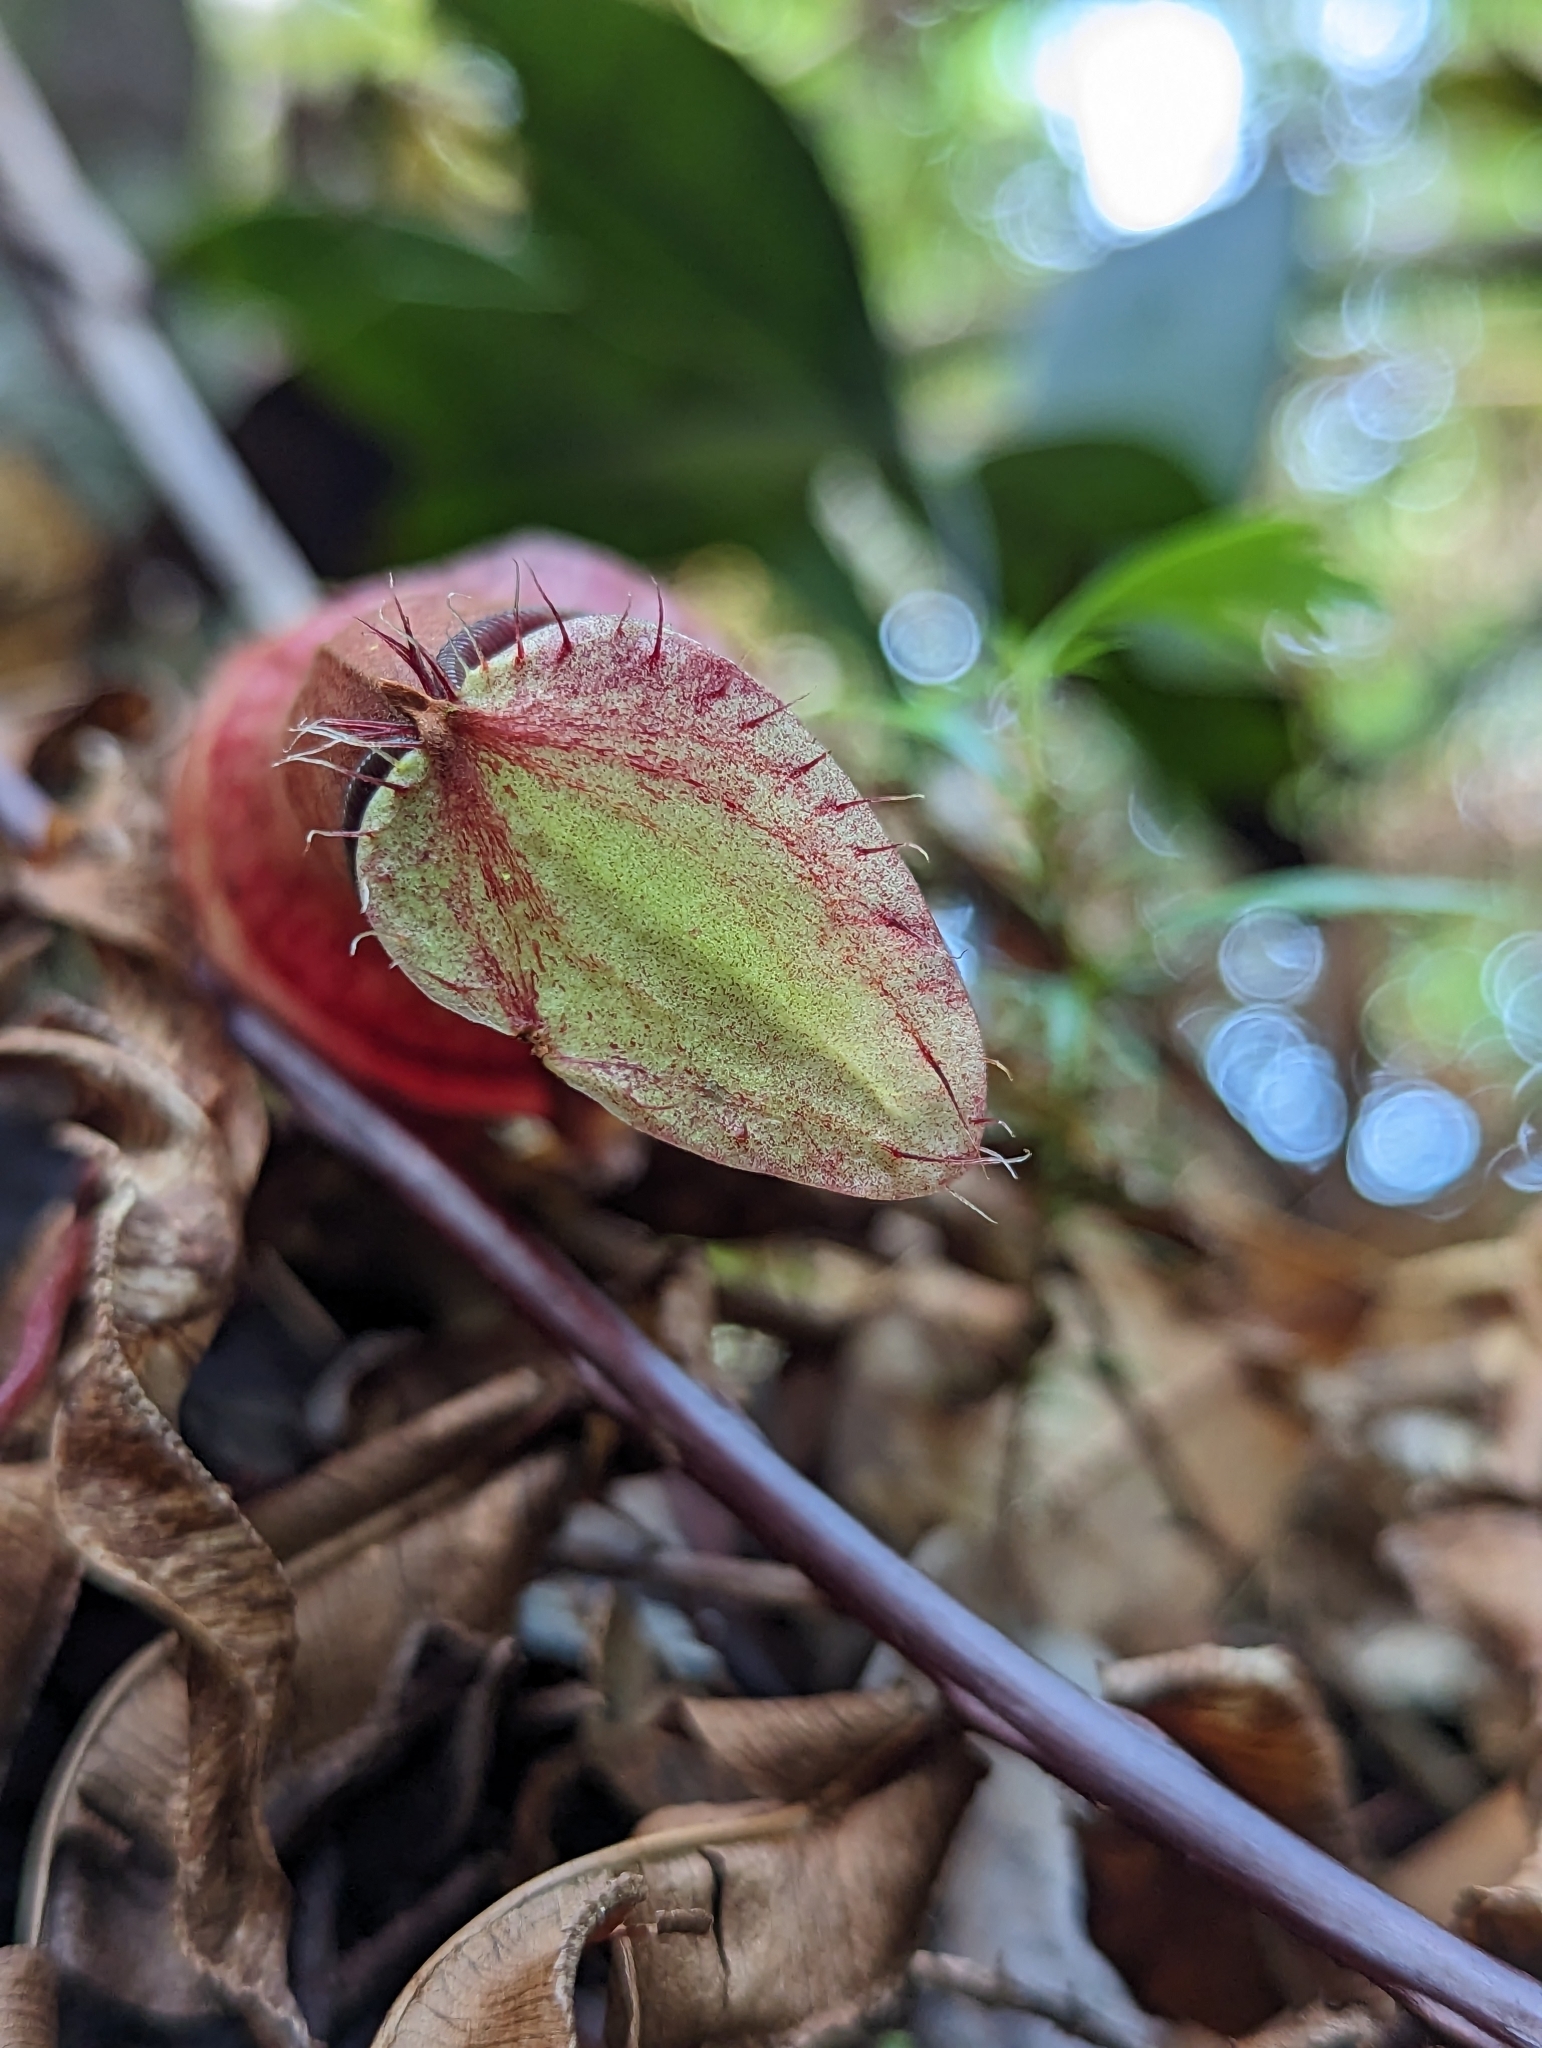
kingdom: Plantae
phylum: Tracheophyta
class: Magnoliopsida
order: Caryophyllales
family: Nepenthaceae
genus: Nepenthes
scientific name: Nepenthes tentaculata
